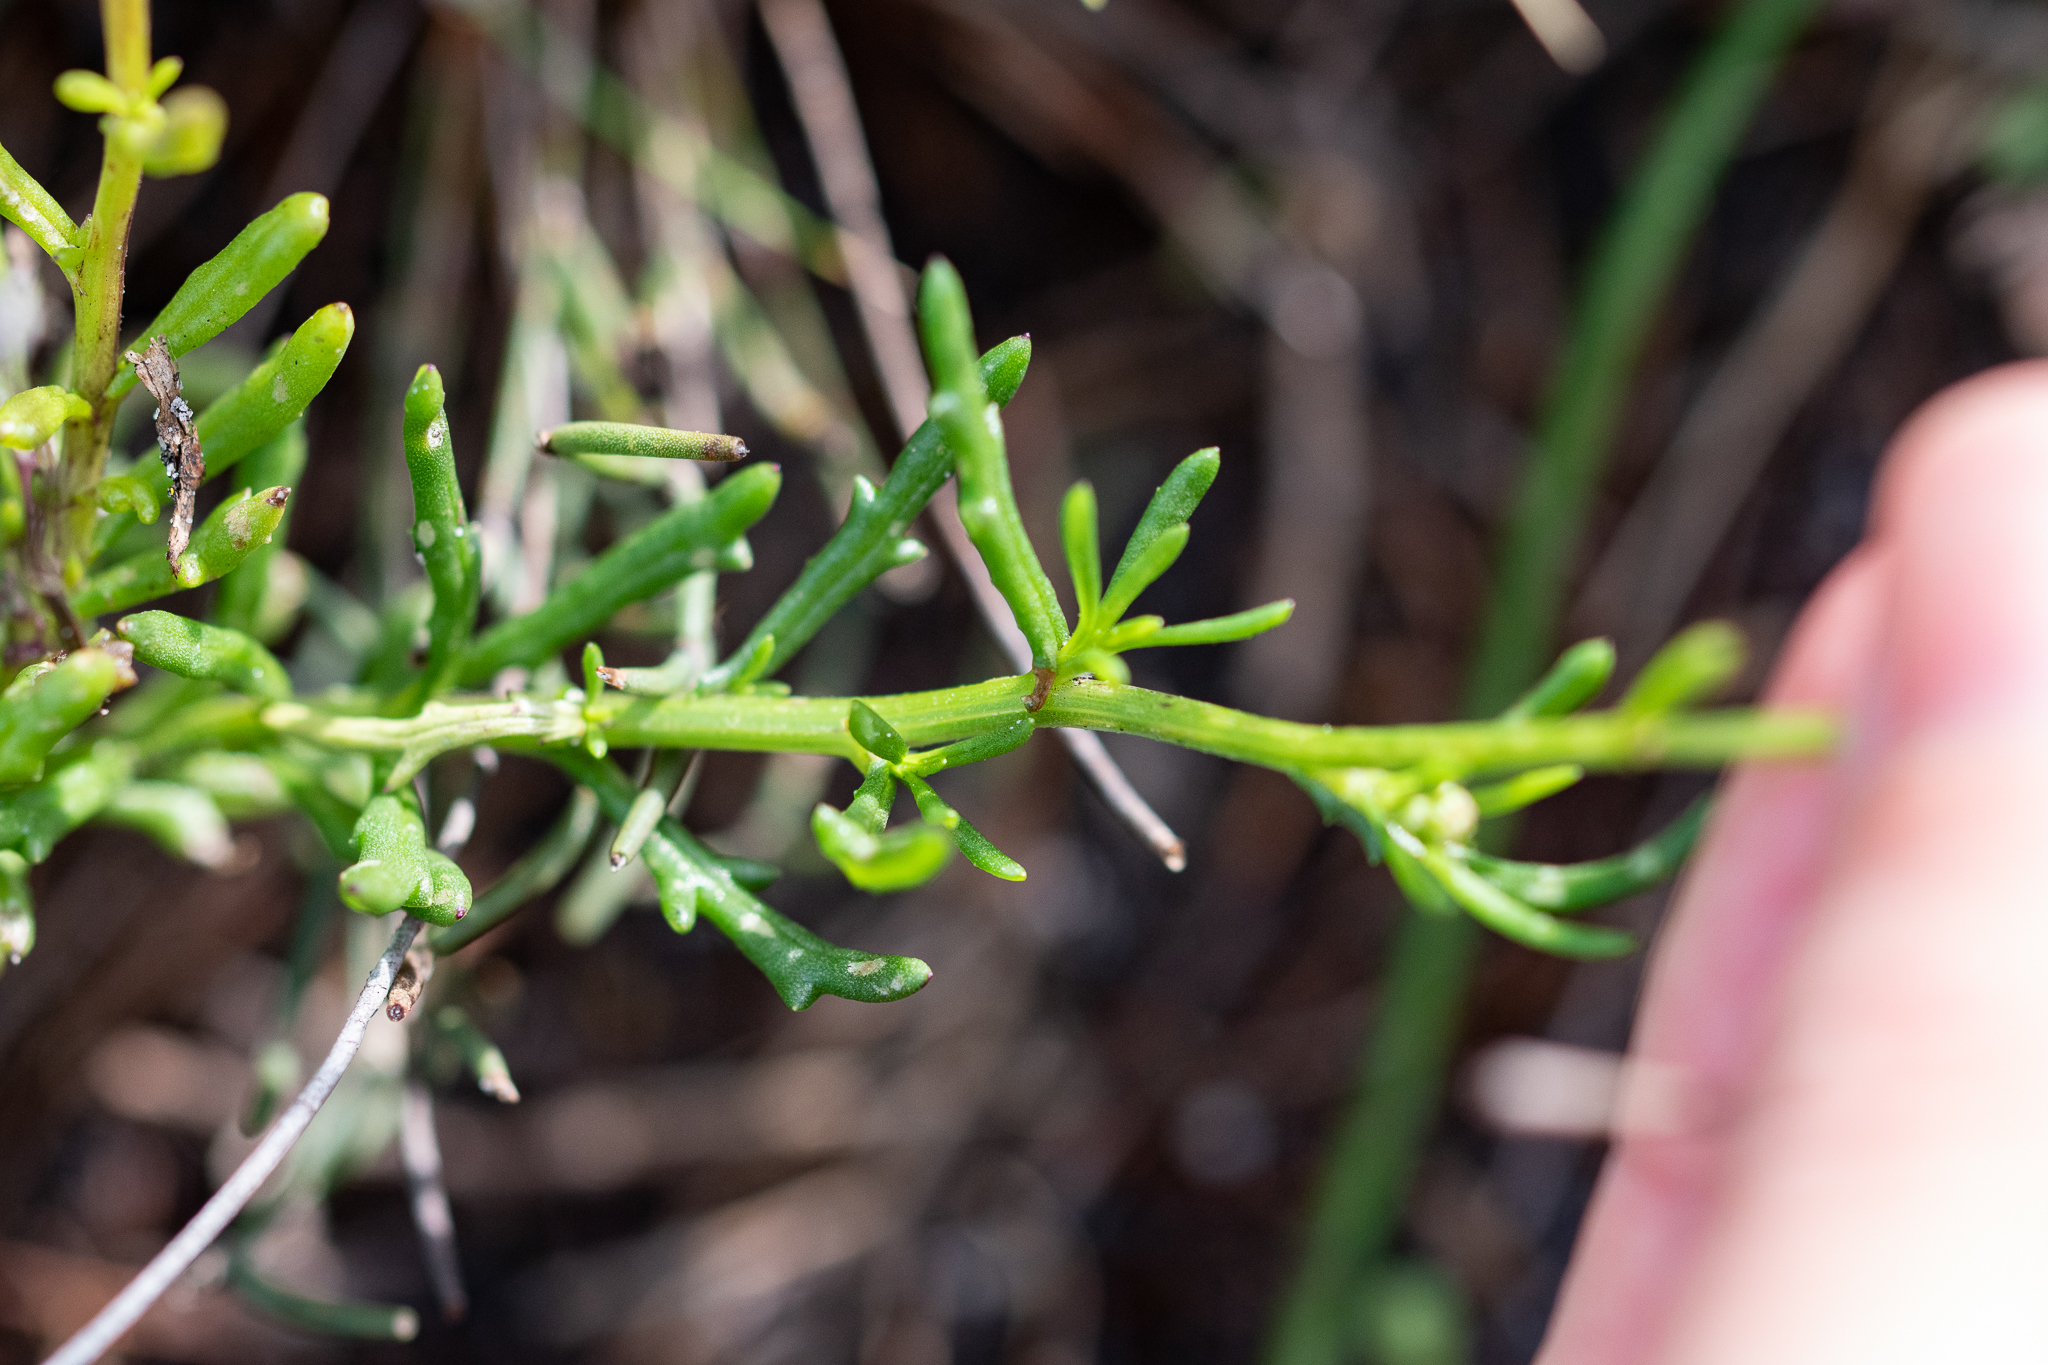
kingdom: Plantae
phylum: Tracheophyta
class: Magnoliopsida
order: Asterales
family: Asteraceae
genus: Senecio
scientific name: Senecio burchellii
